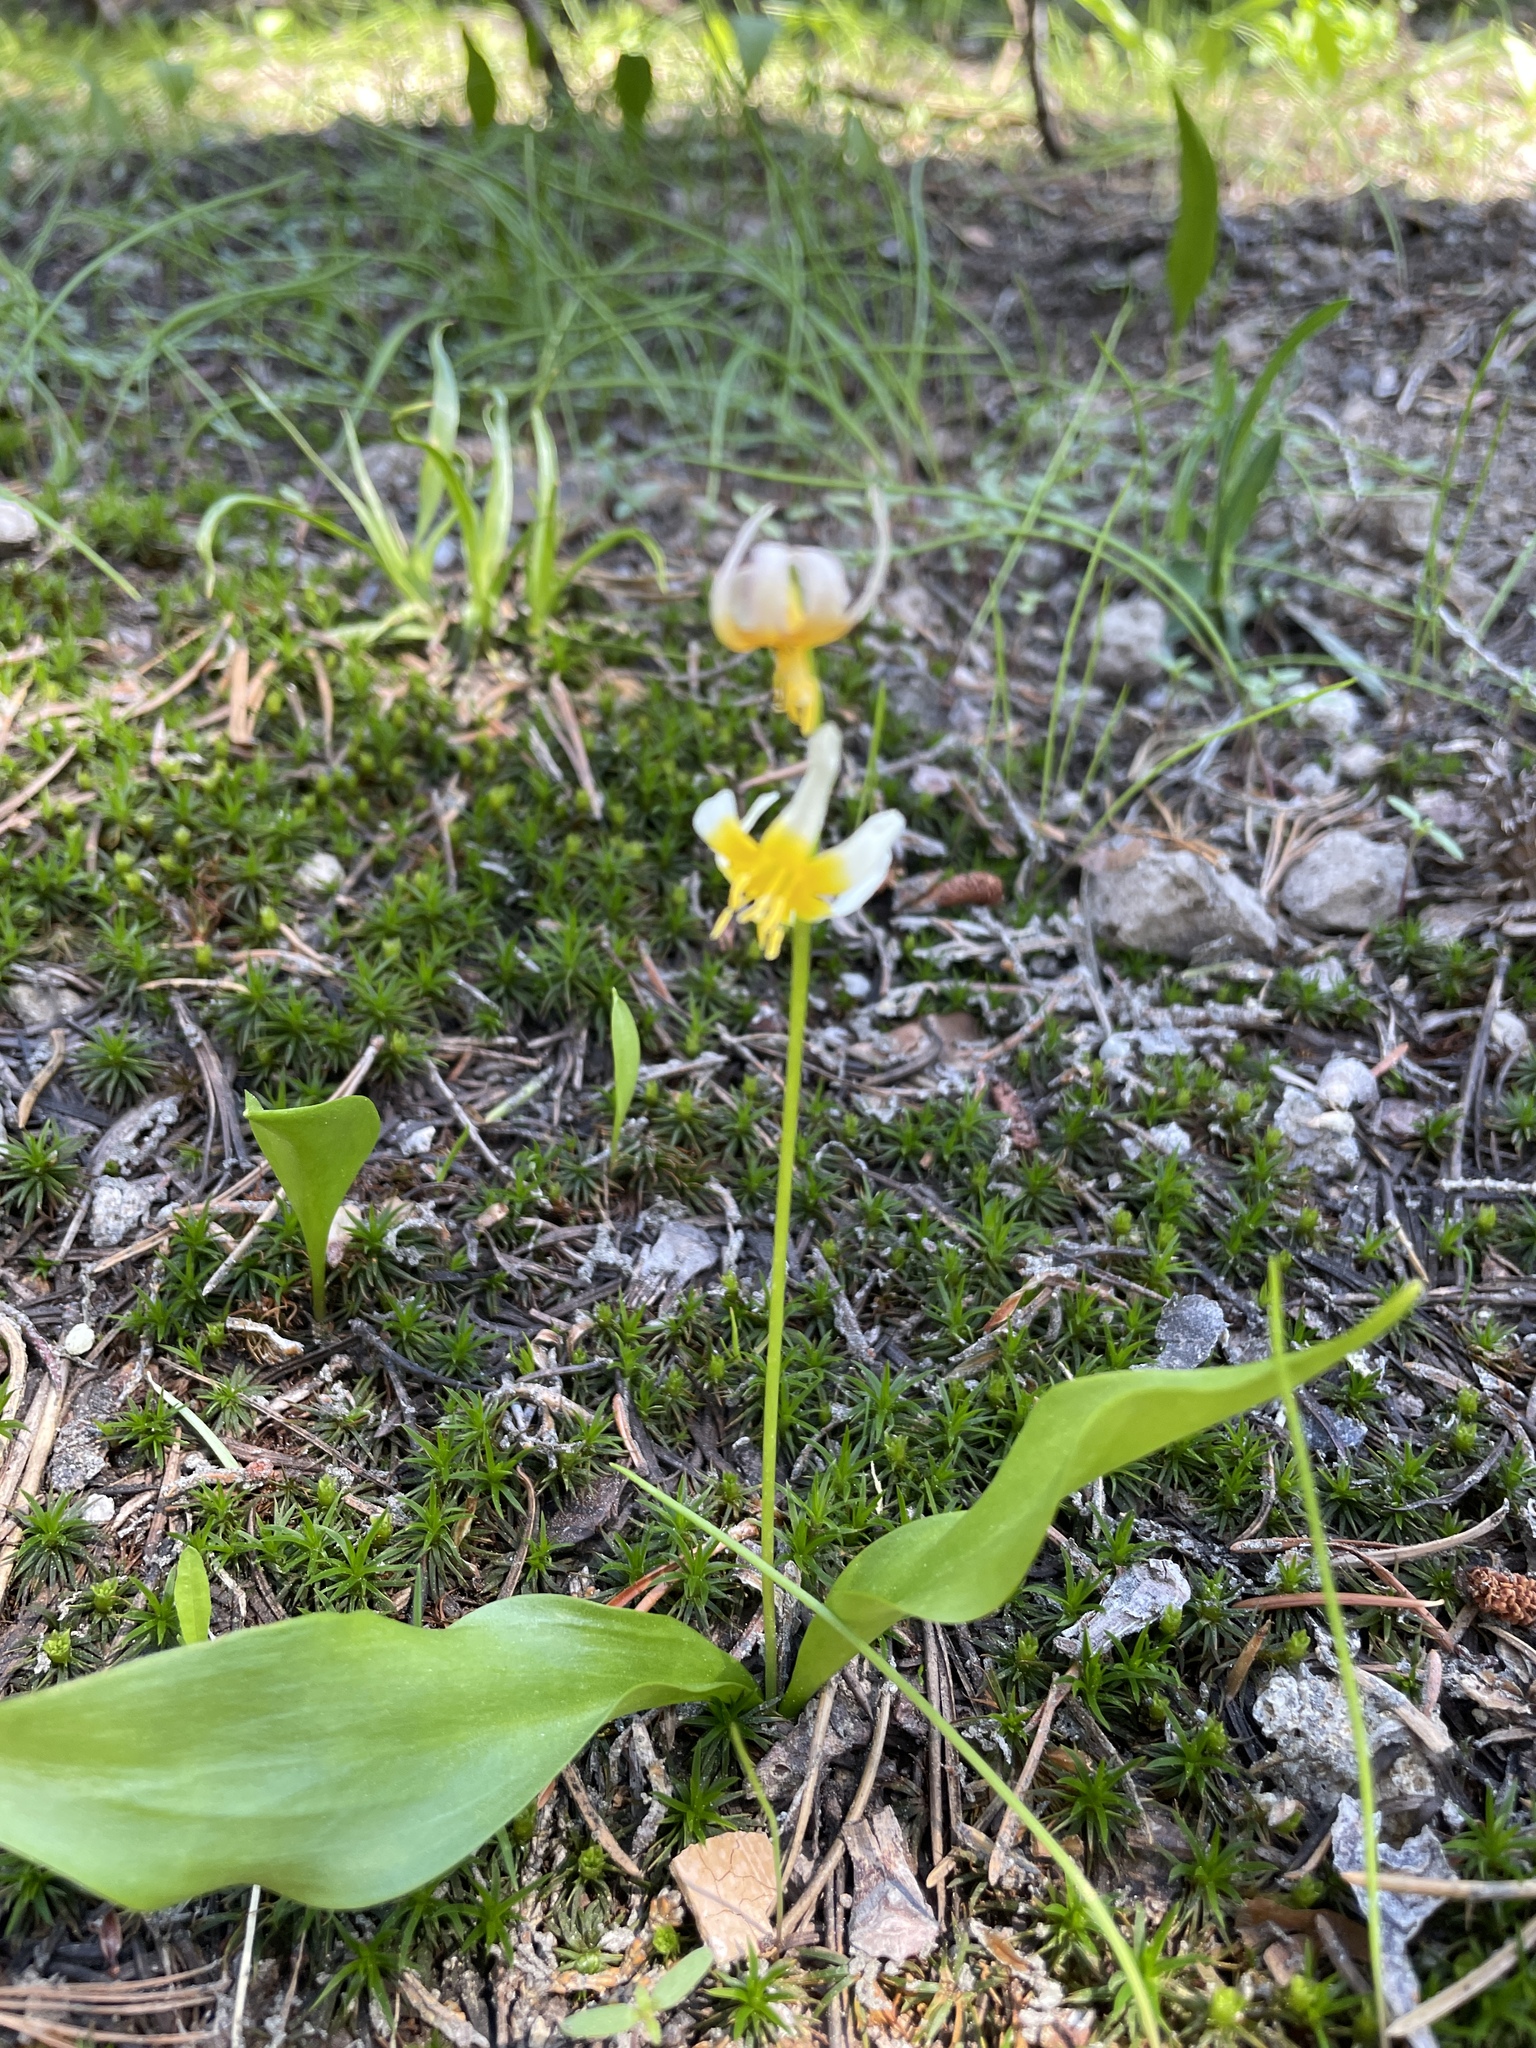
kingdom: Plantae
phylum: Tracheophyta
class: Liliopsida
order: Liliales
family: Liliaceae
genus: Erythronium
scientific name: Erythronium purpurascens
